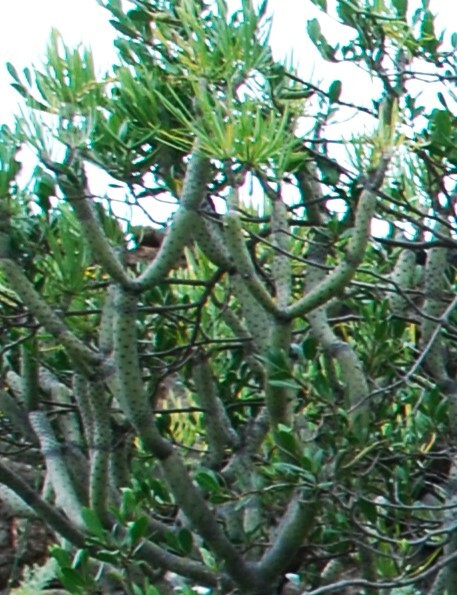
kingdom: Plantae
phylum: Tracheophyta
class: Magnoliopsida
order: Asterales
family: Asteraceae
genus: Kleinia
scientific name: Kleinia neriifolia
